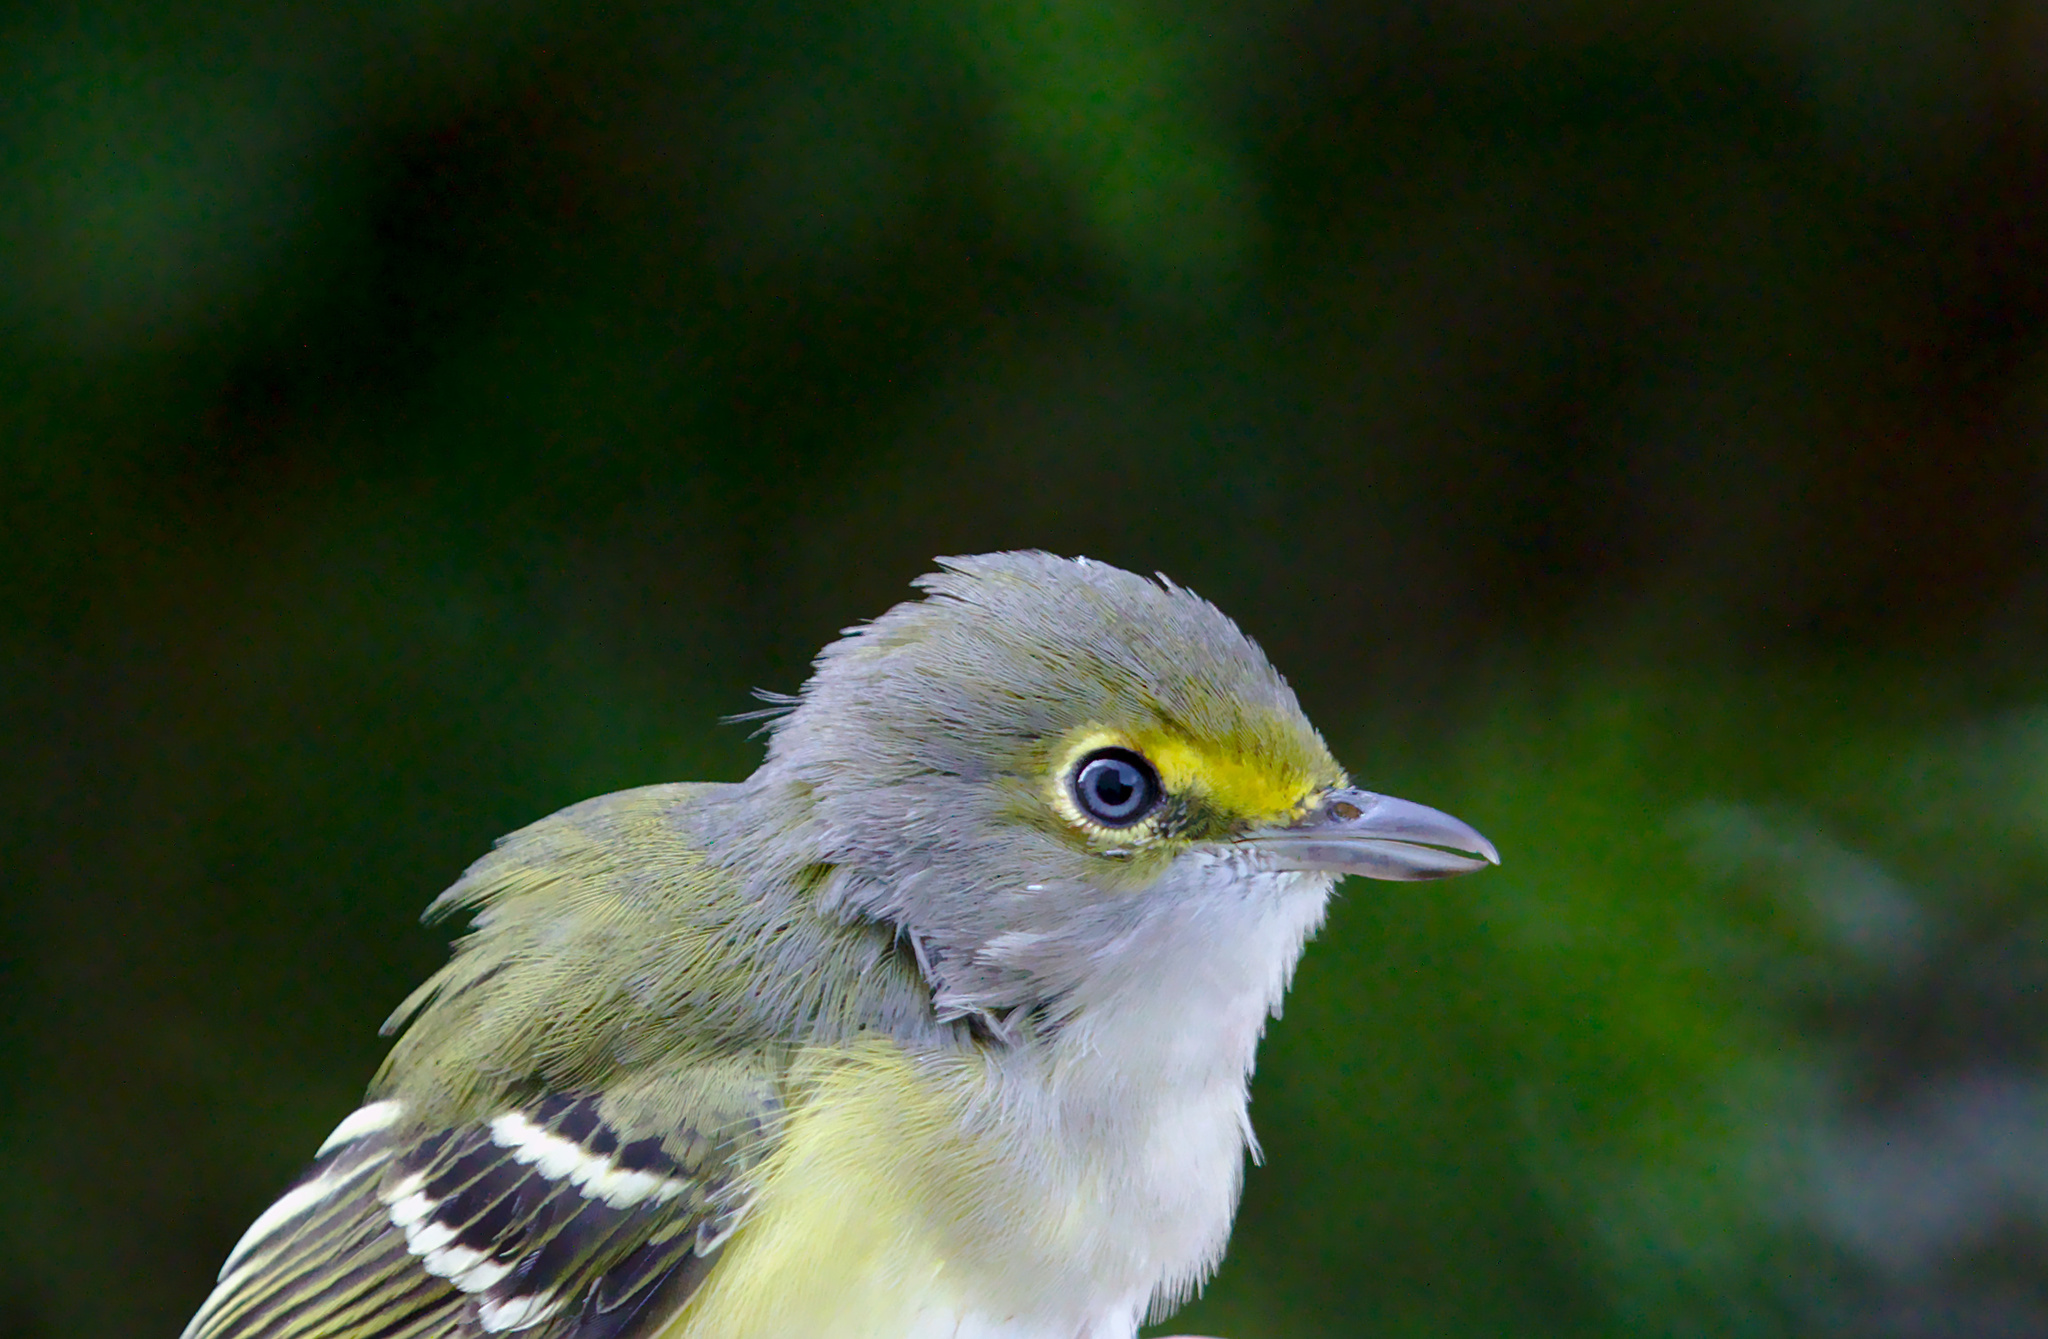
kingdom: Animalia
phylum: Chordata
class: Aves
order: Passeriformes
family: Vireonidae
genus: Vireo
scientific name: Vireo griseus
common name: White-eyed vireo
